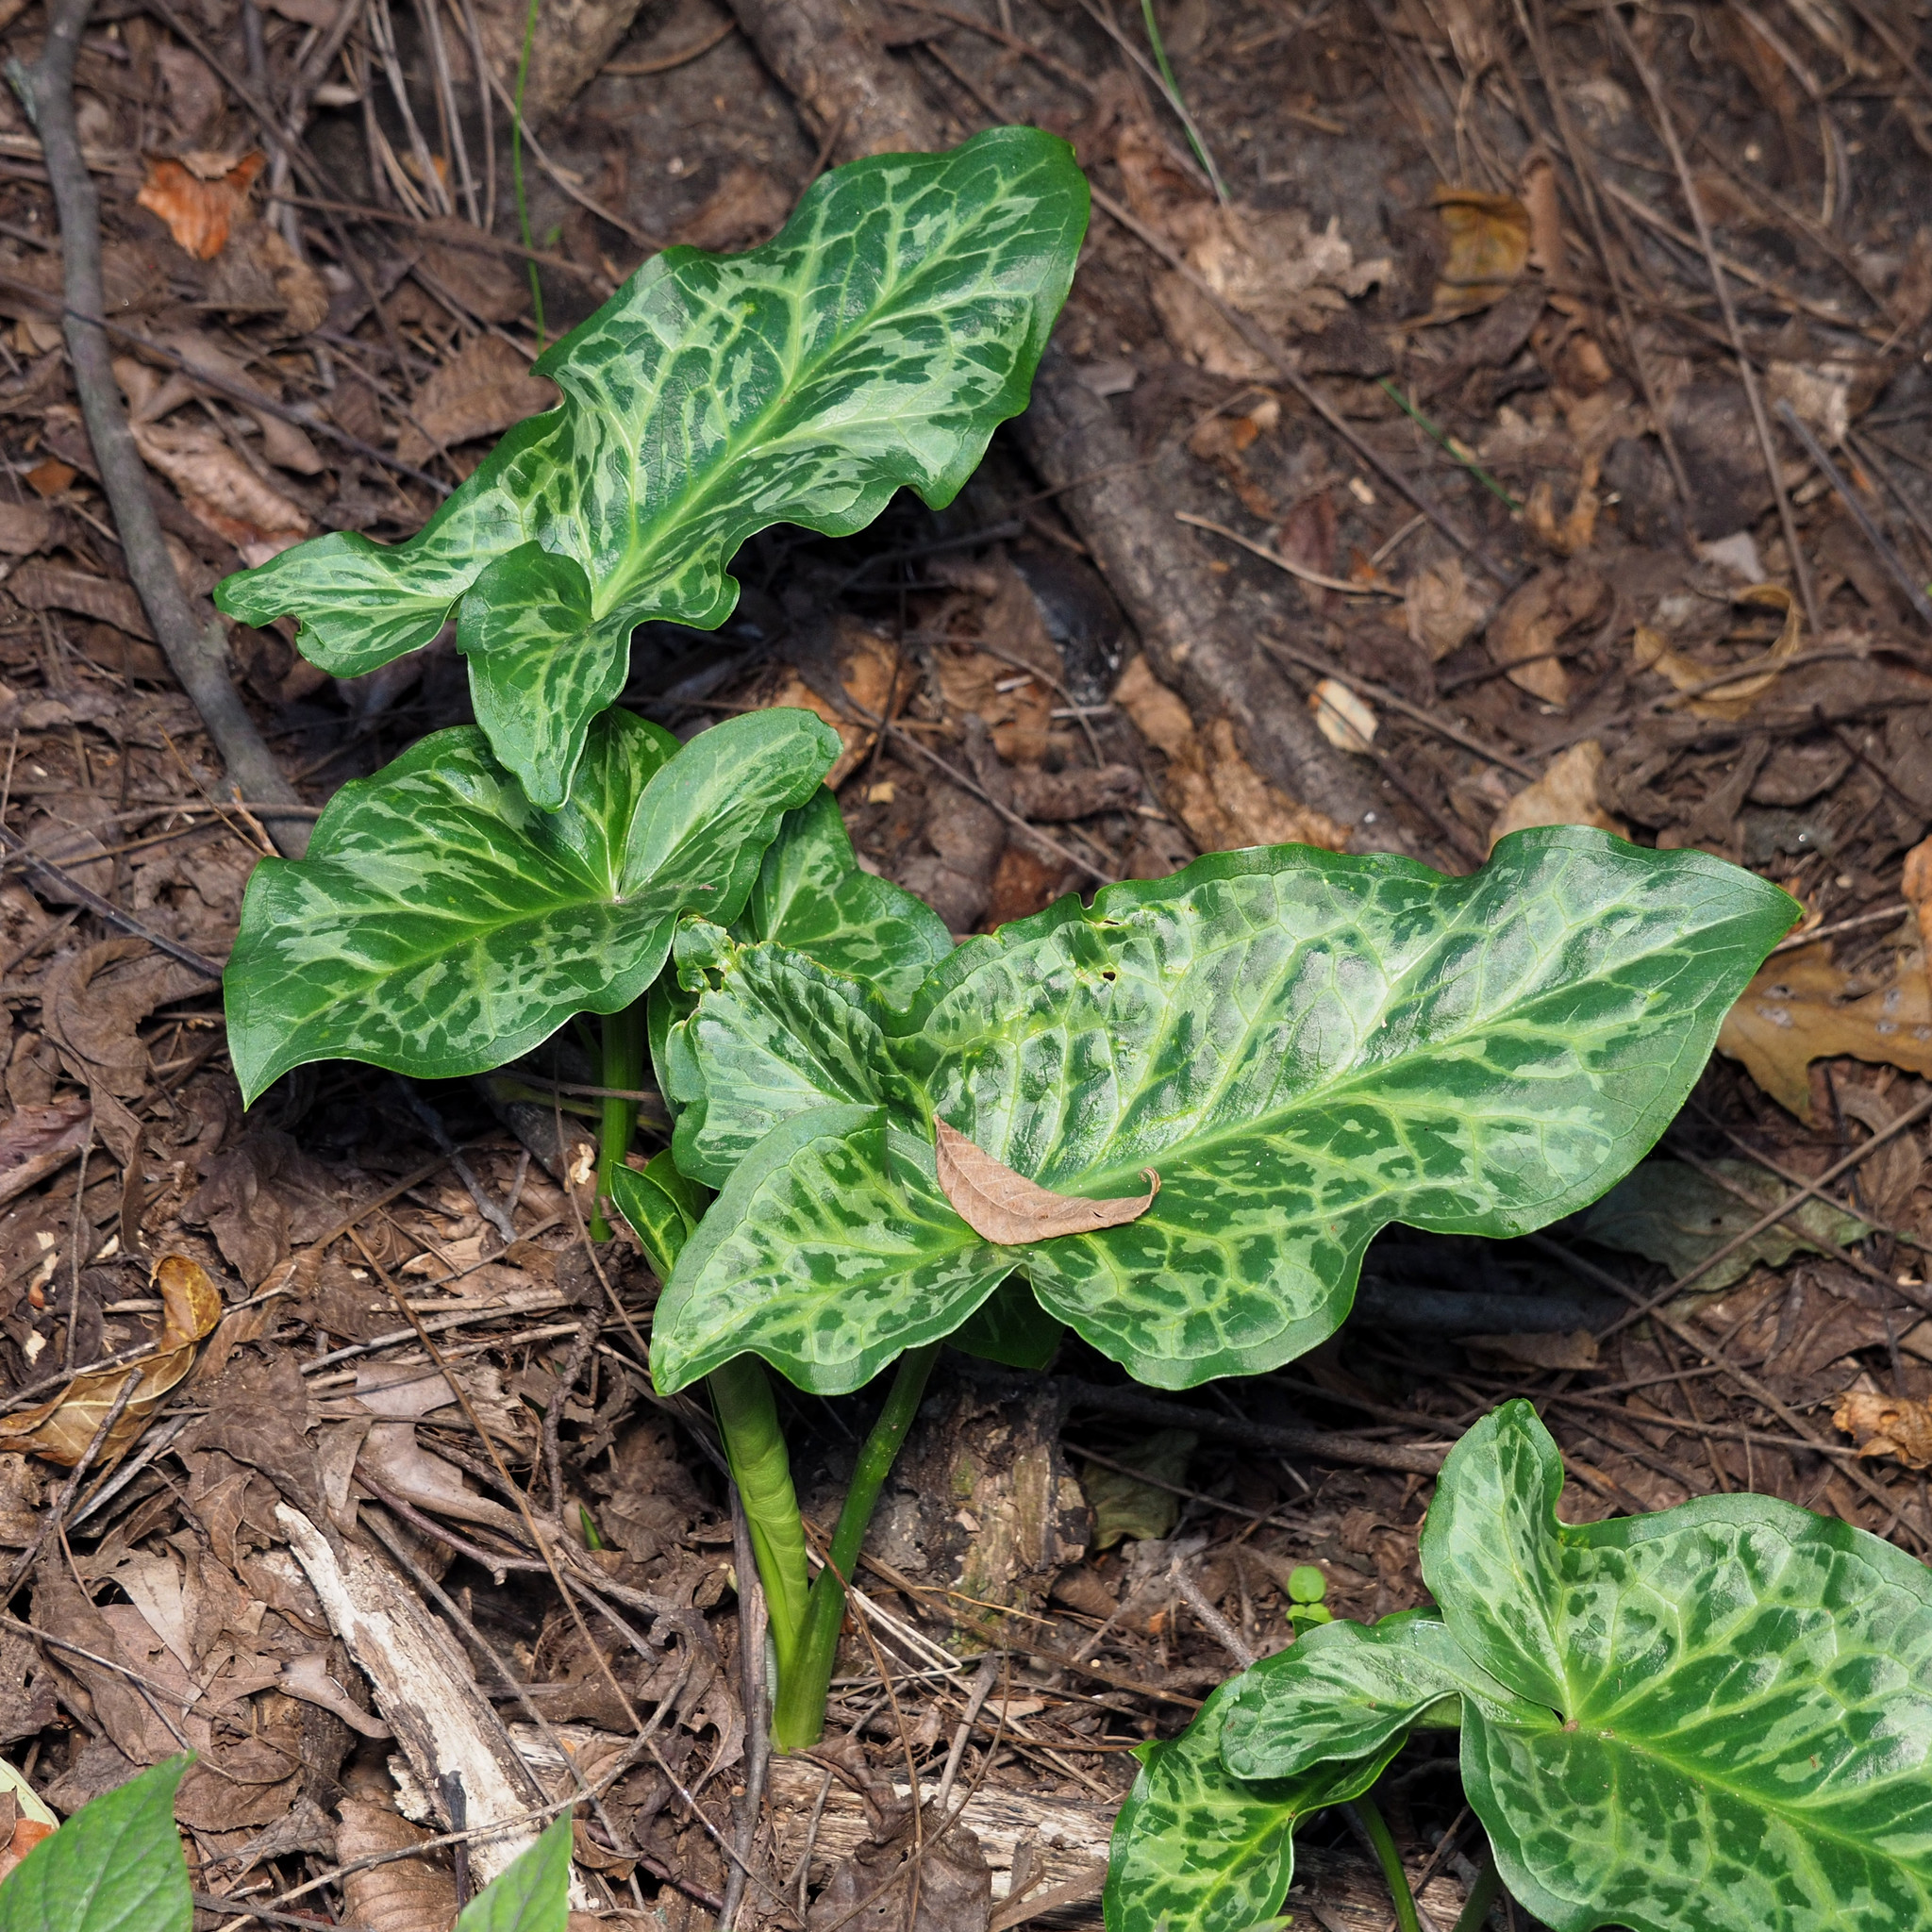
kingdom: Plantae
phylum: Tracheophyta
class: Liliopsida
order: Alismatales
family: Araceae
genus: Arum
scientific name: Arum italicum
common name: Italian lords-and-ladies
